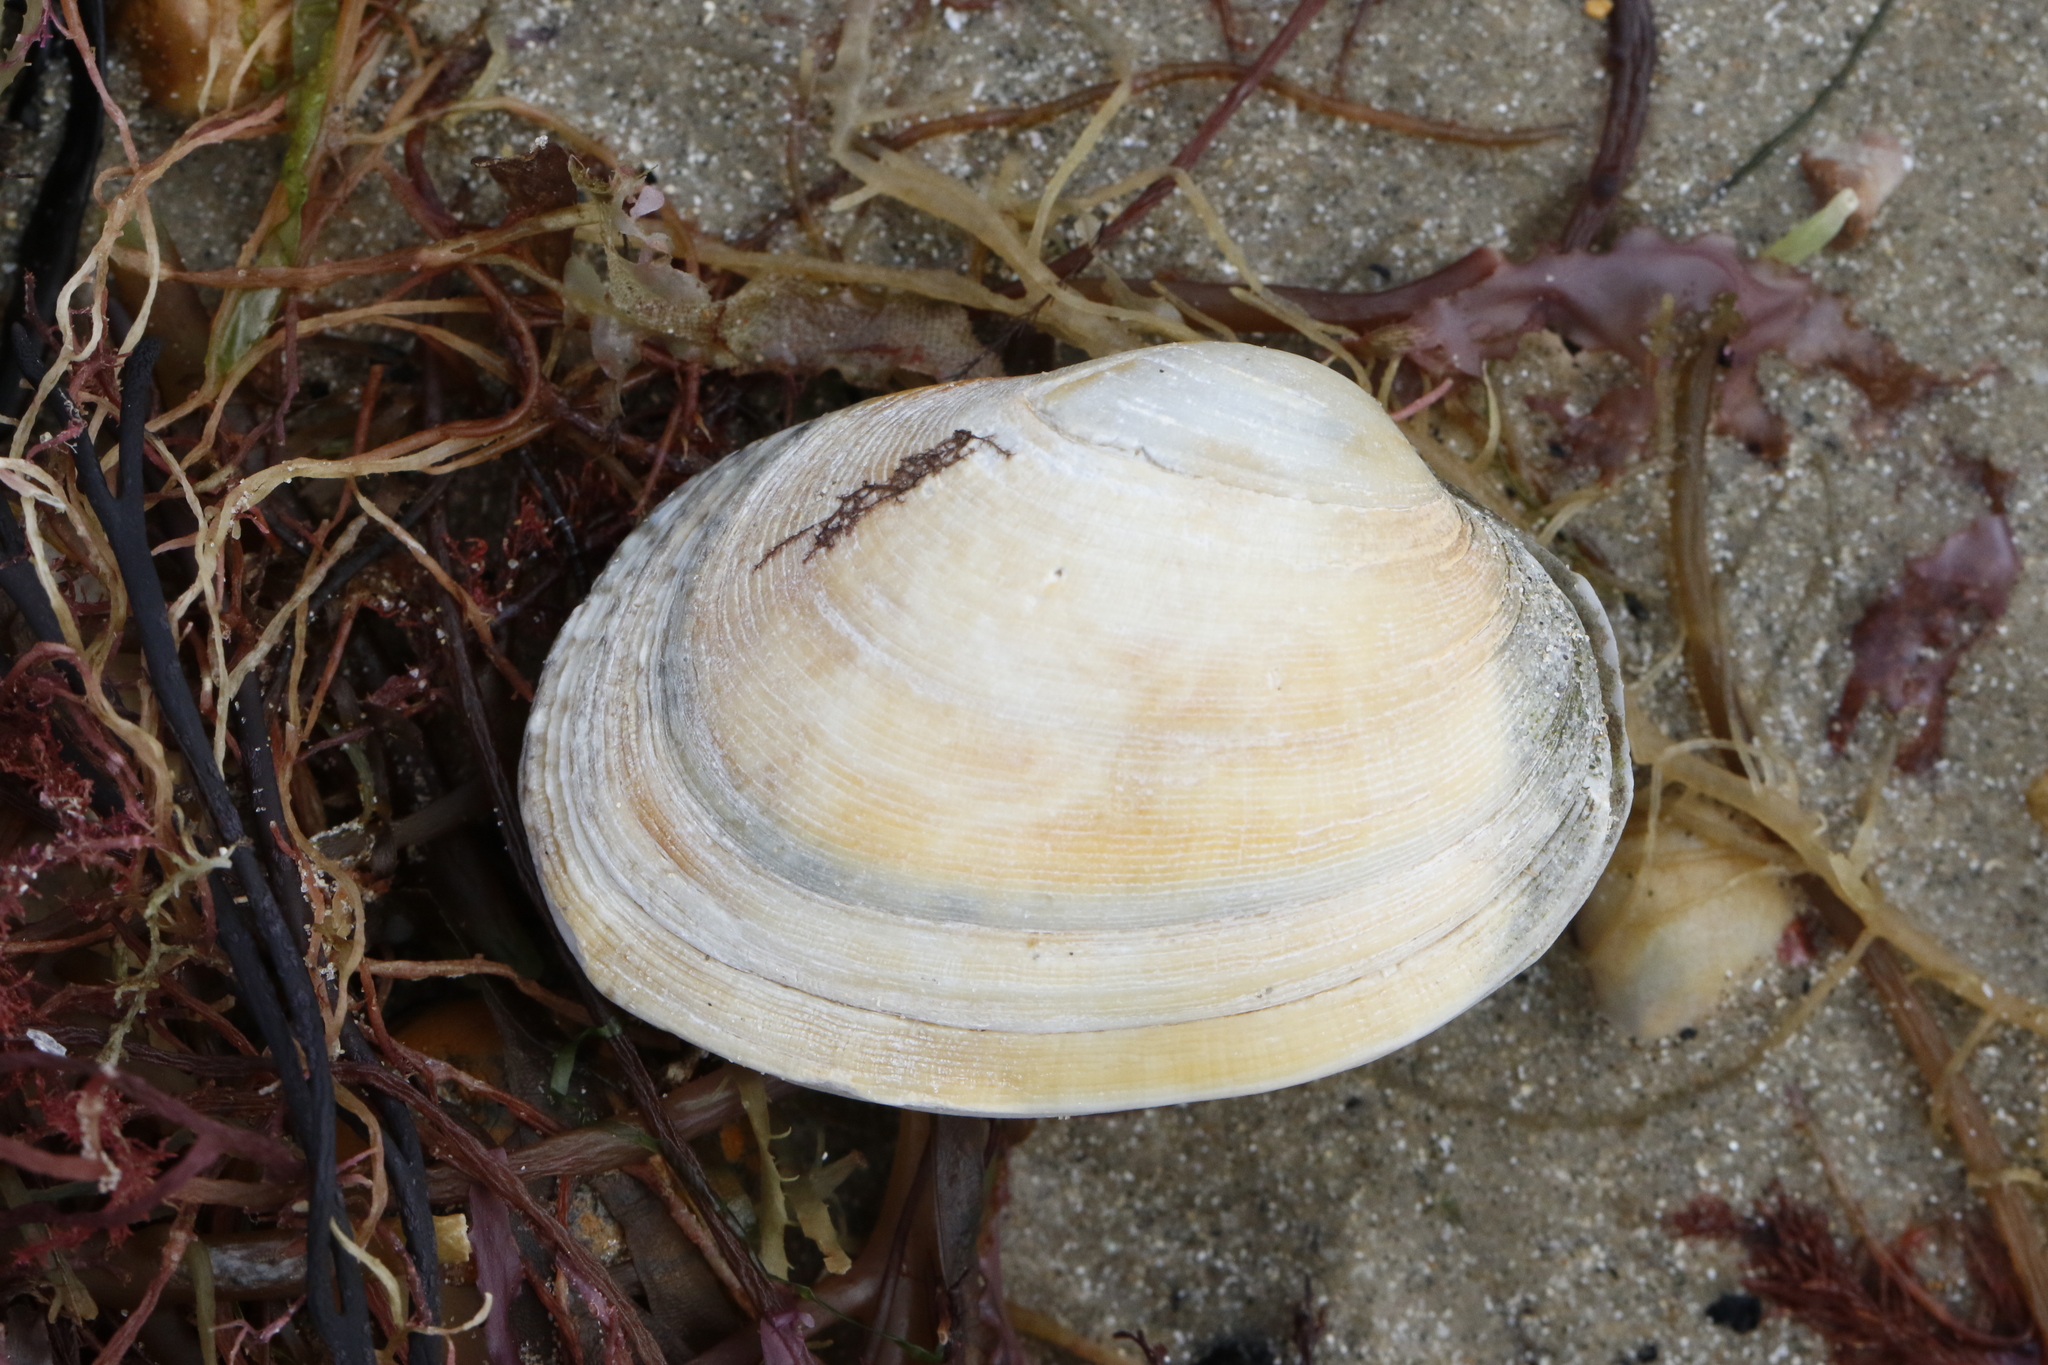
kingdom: Animalia
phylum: Mollusca
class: Bivalvia
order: Venerida
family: Veneridae
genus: Venerupis
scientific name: Venerupis corrugata
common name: Pullet carpet shell
